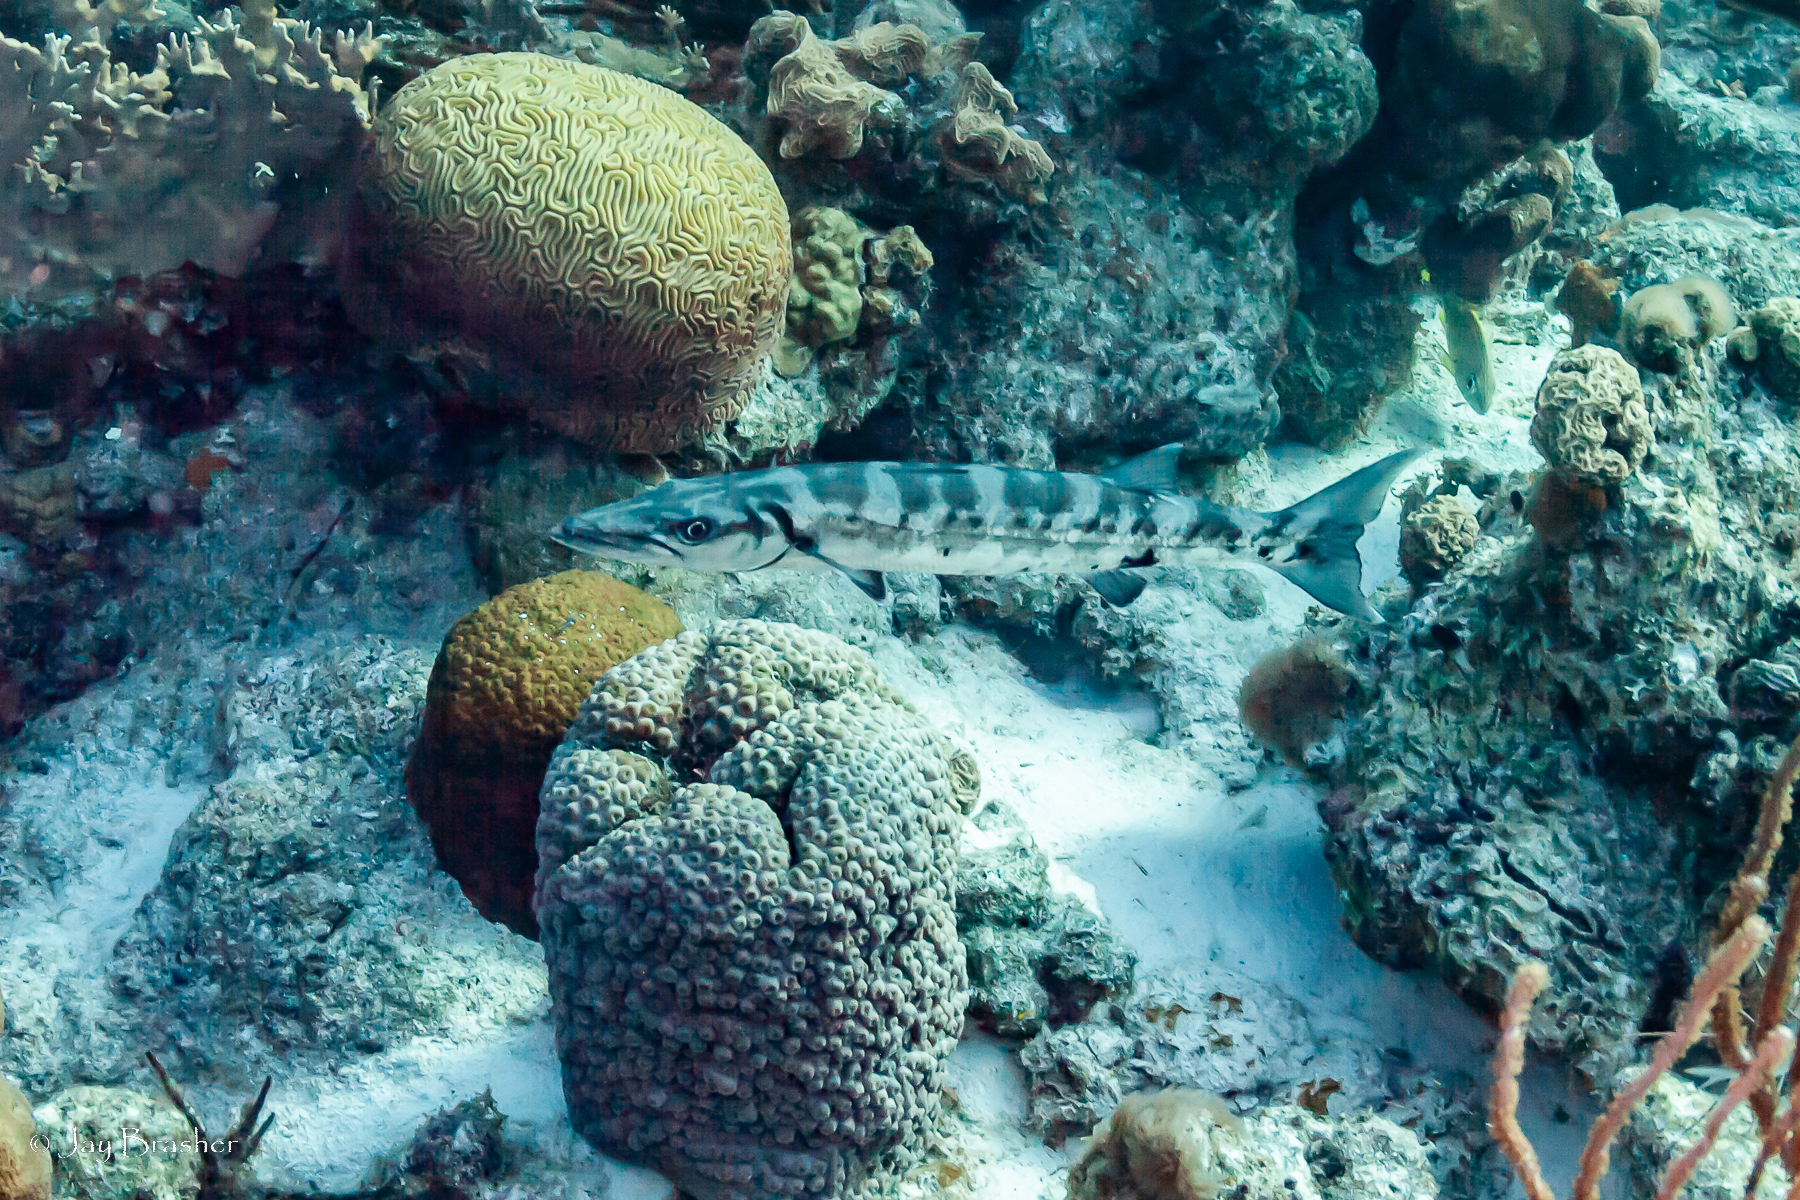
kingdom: Animalia
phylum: Chordata
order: Perciformes
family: Sphyraenidae
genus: Sphyraena
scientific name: Sphyraena barracuda
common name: Great barracuda
